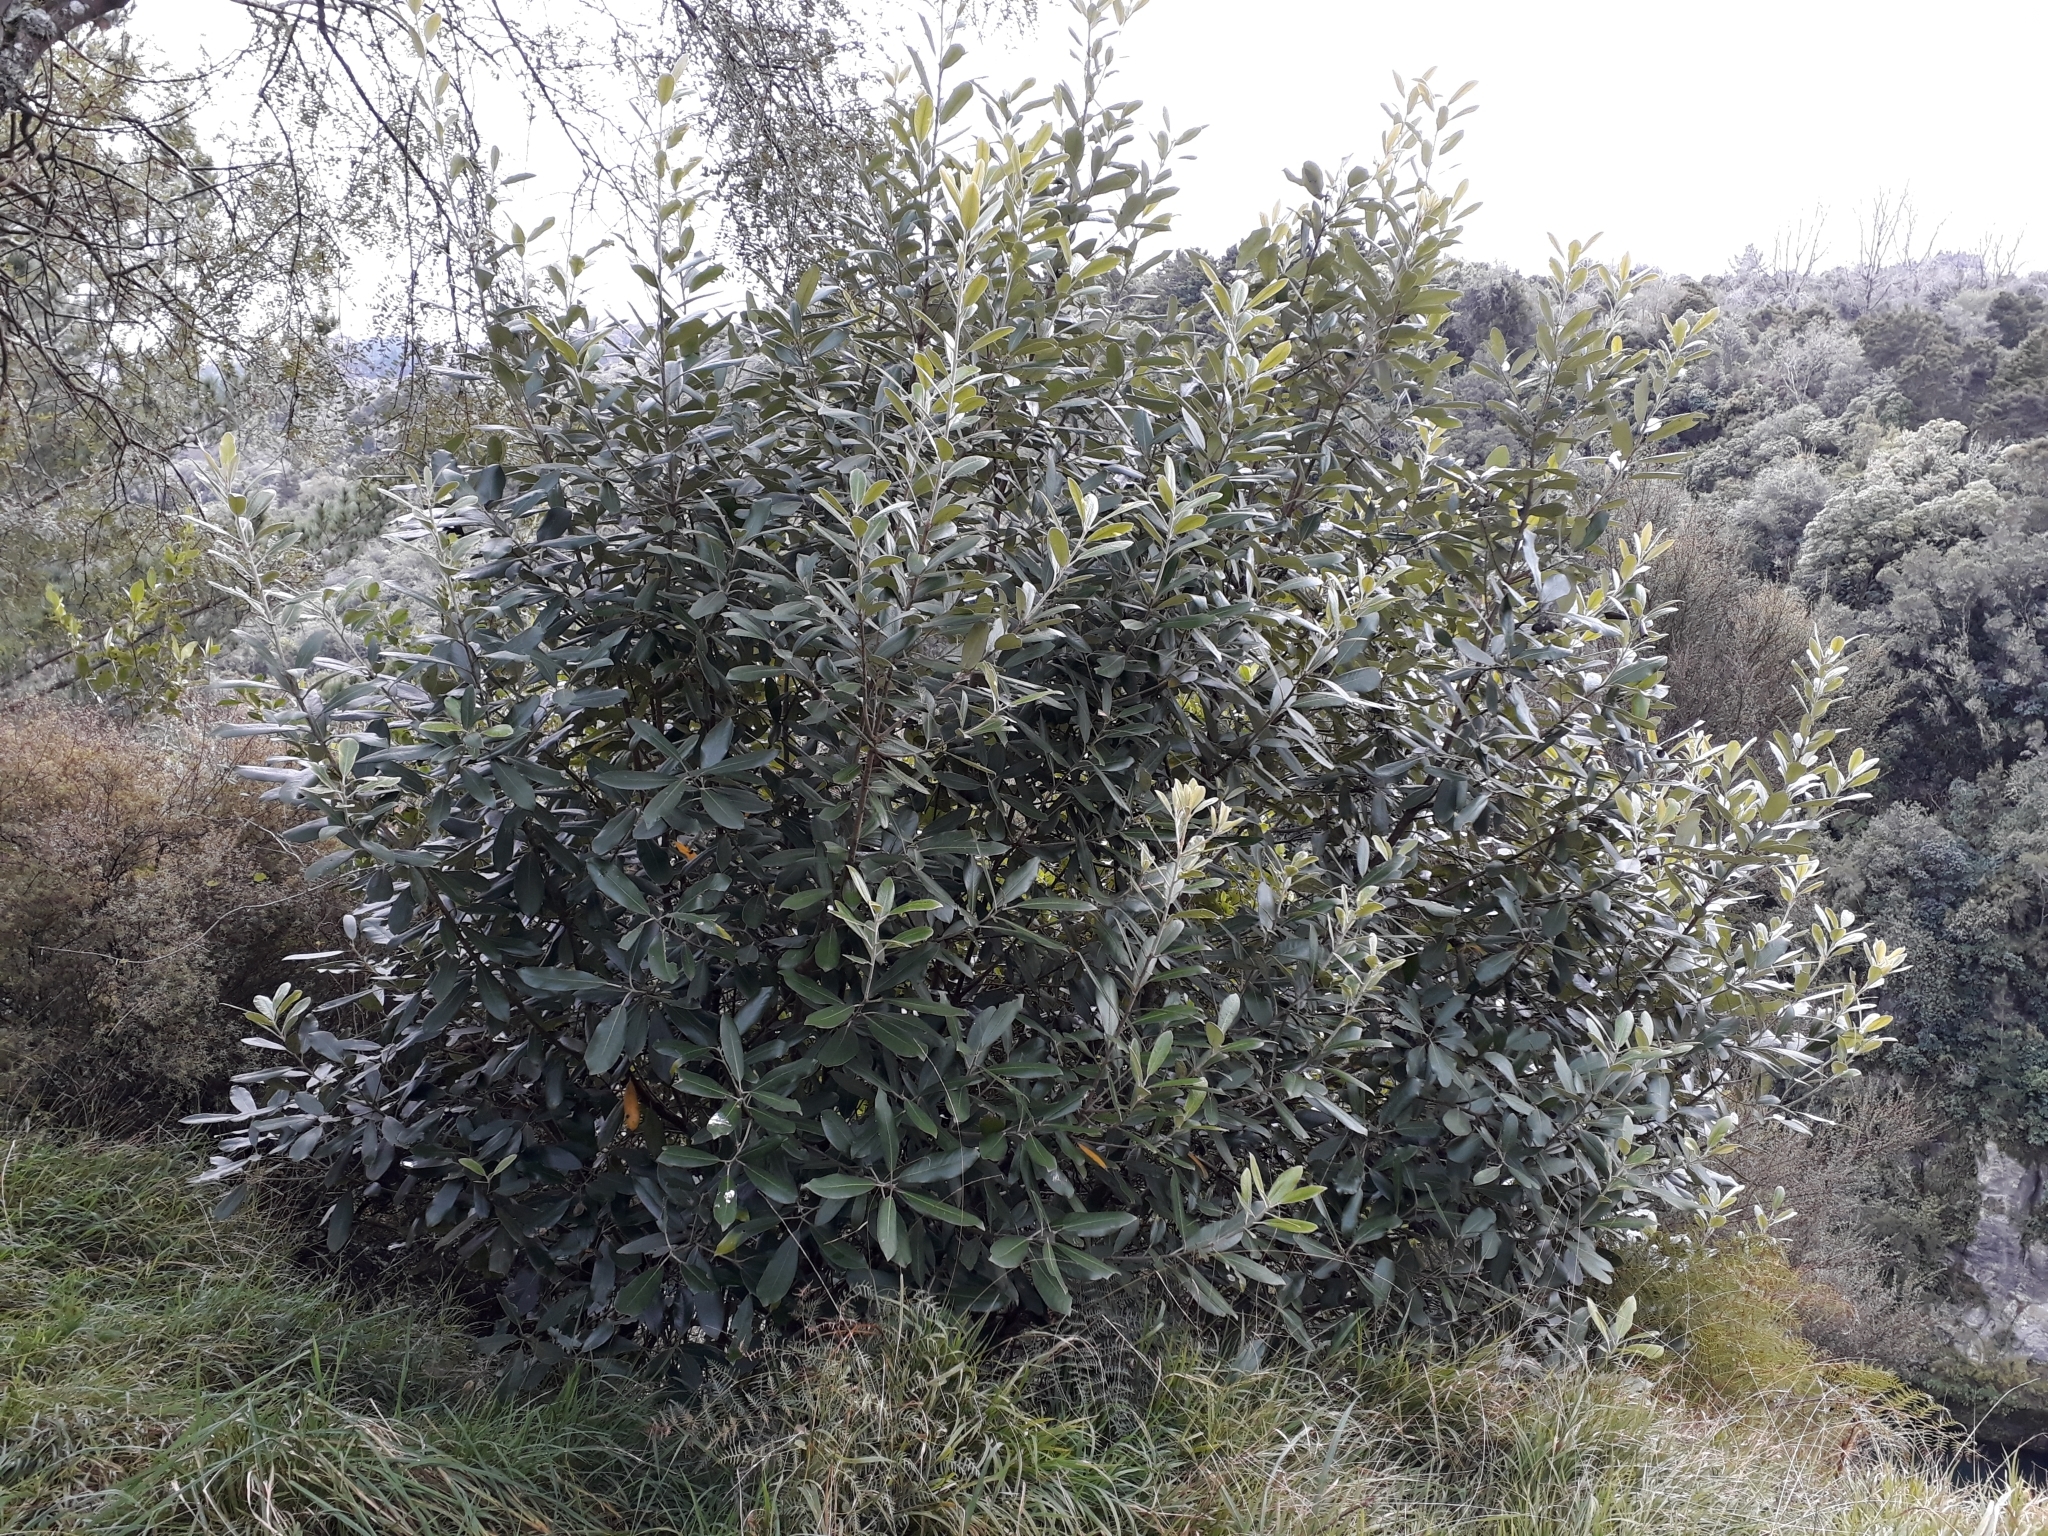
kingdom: Plantae
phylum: Tracheophyta
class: Magnoliopsida
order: Apiales
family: Pittosporaceae
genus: Pittosporum
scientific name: Pittosporum ralphii
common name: Ralph's desertwillow
